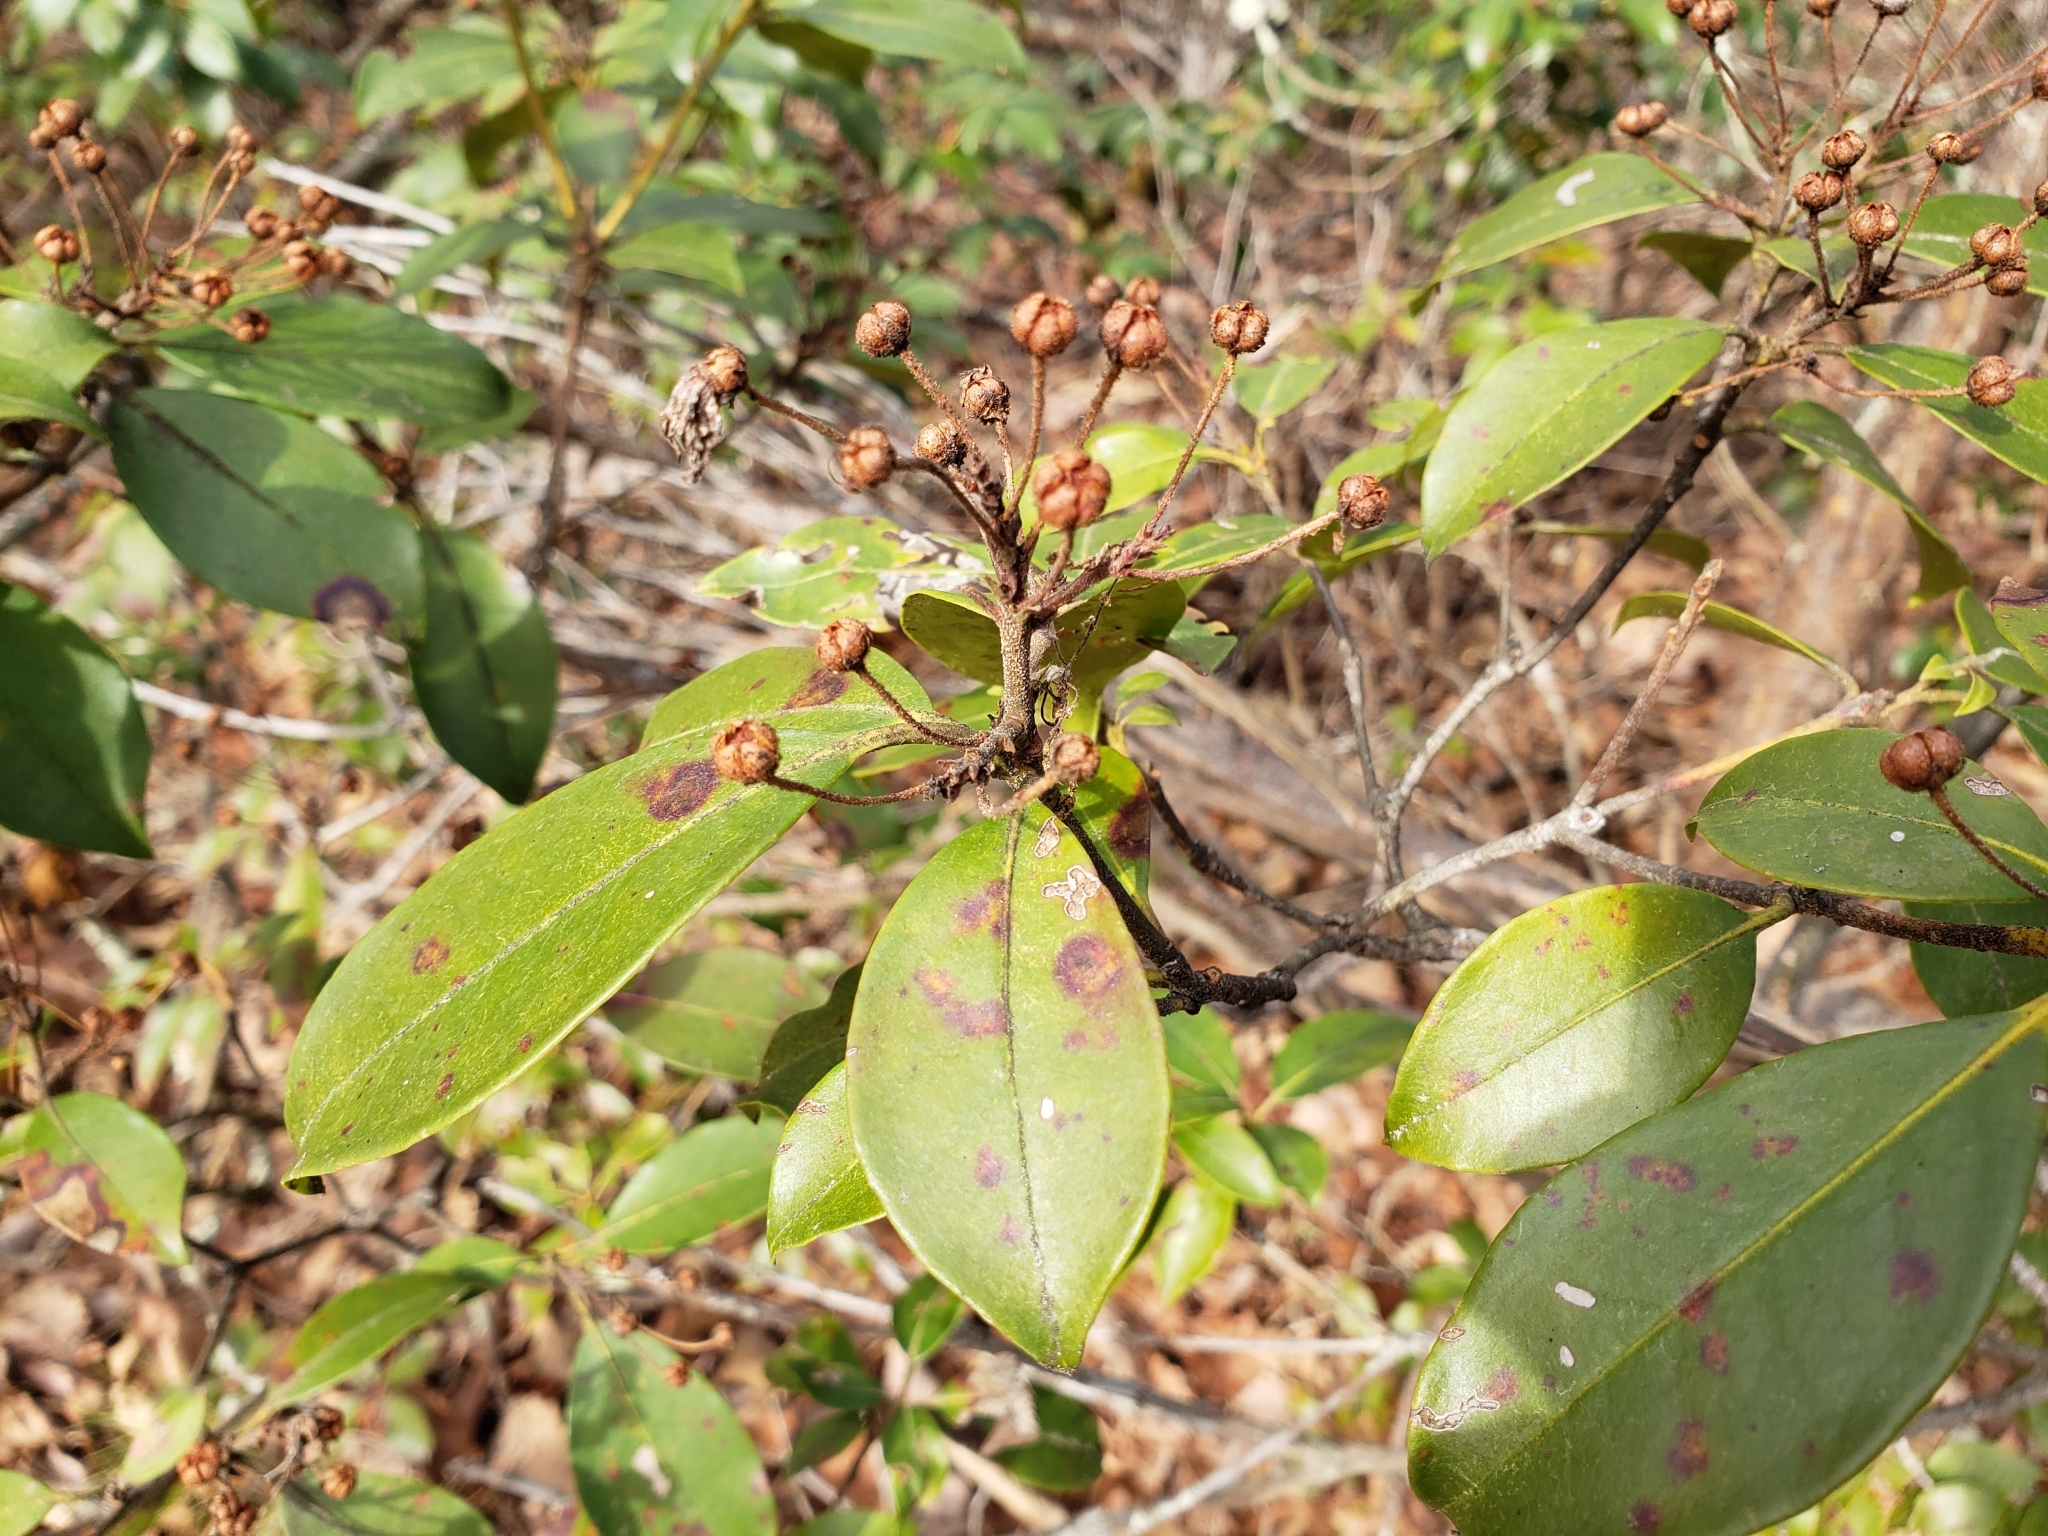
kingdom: Plantae
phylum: Tracheophyta
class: Magnoliopsida
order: Ericales
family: Ericaceae
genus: Kalmia
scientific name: Kalmia latifolia
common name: Mountain-laurel
